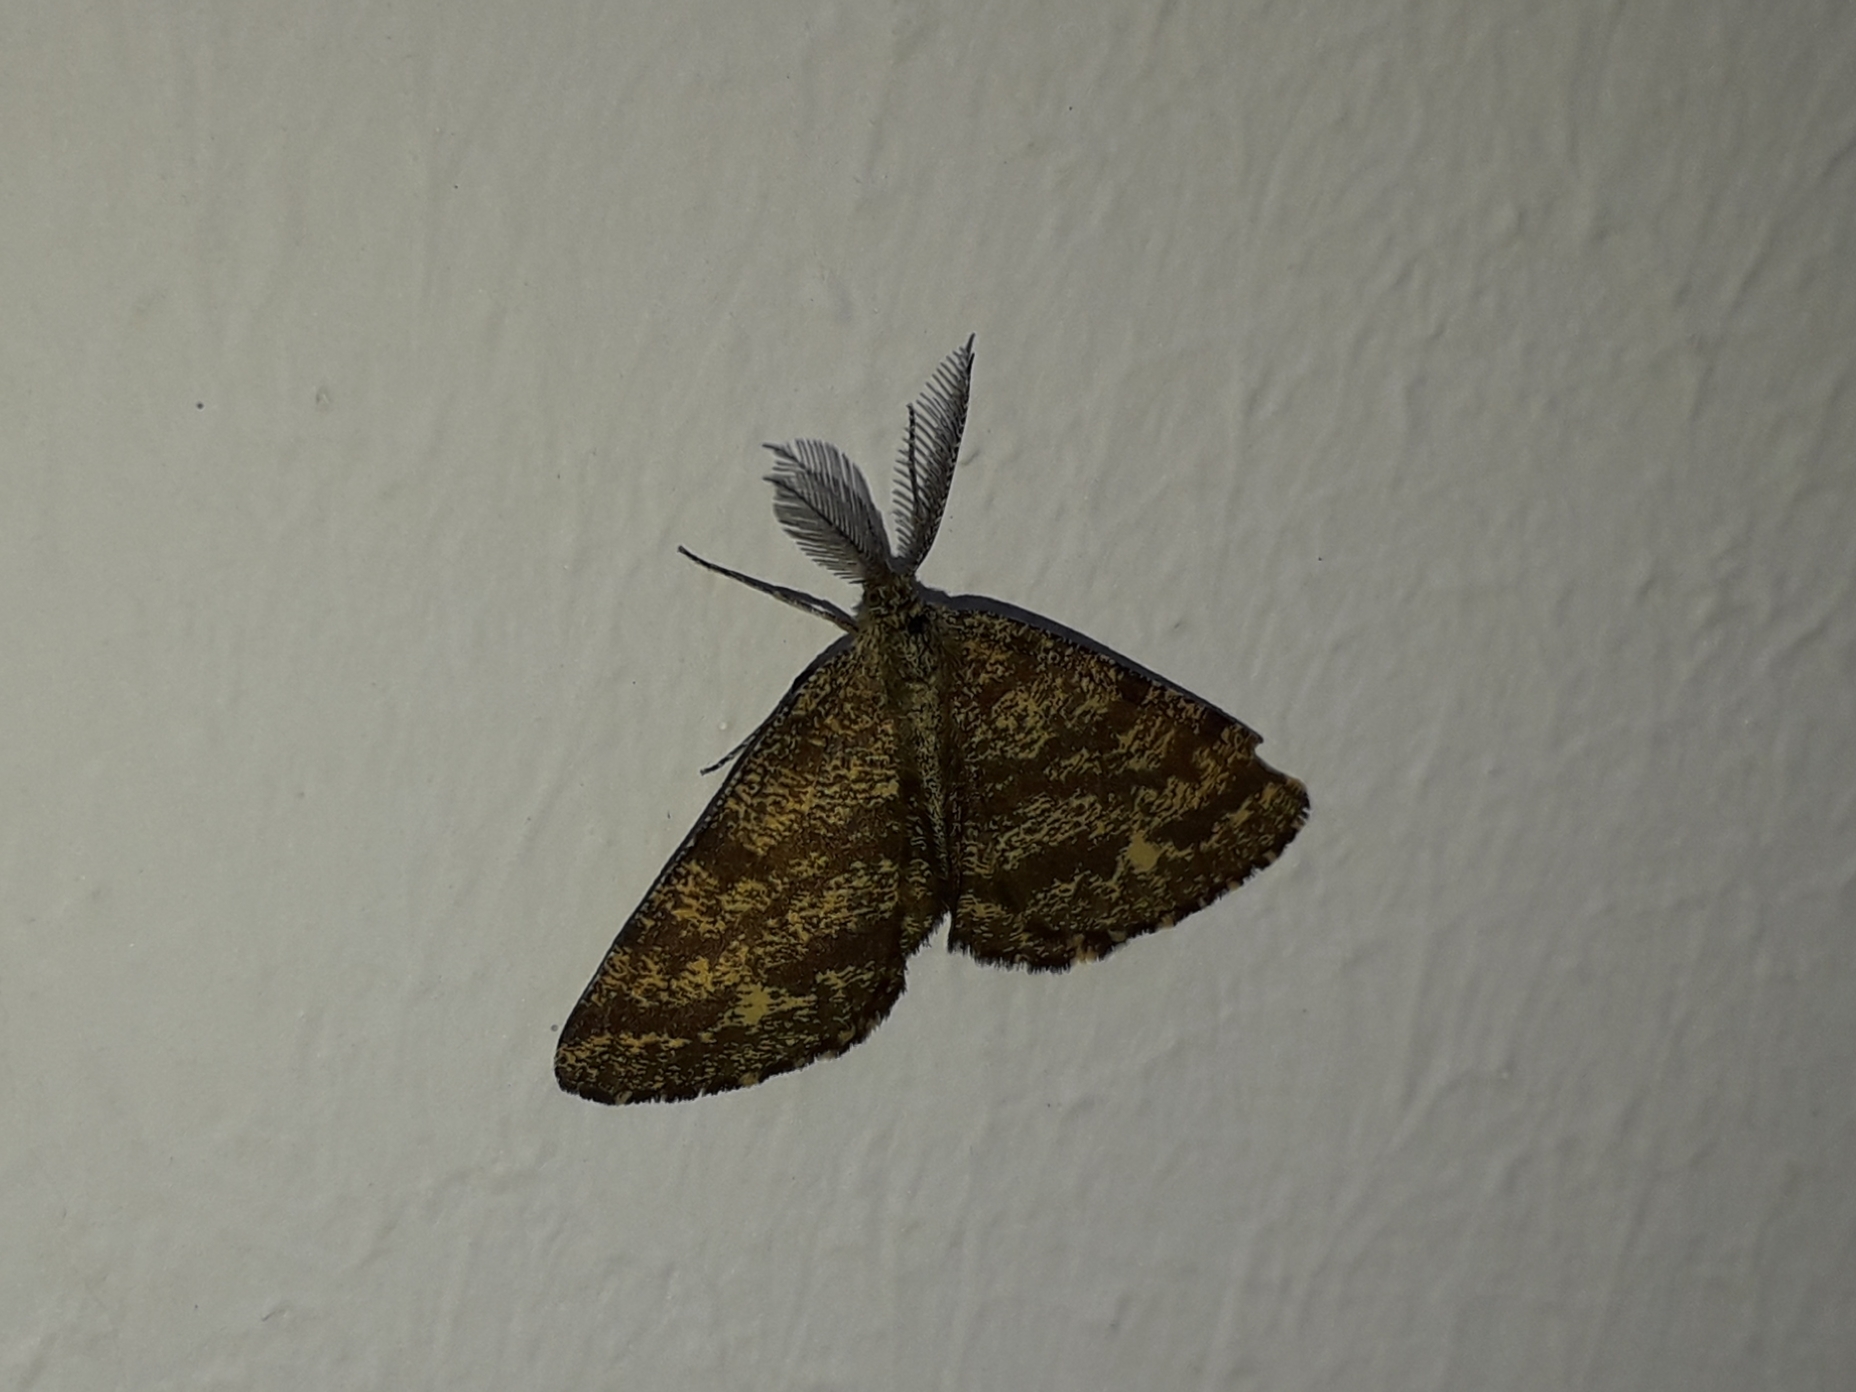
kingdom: Animalia
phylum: Arthropoda
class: Insecta
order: Lepidoptera
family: Geometridae
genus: Ematurga
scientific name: Ematurga atomaria
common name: Common heath
